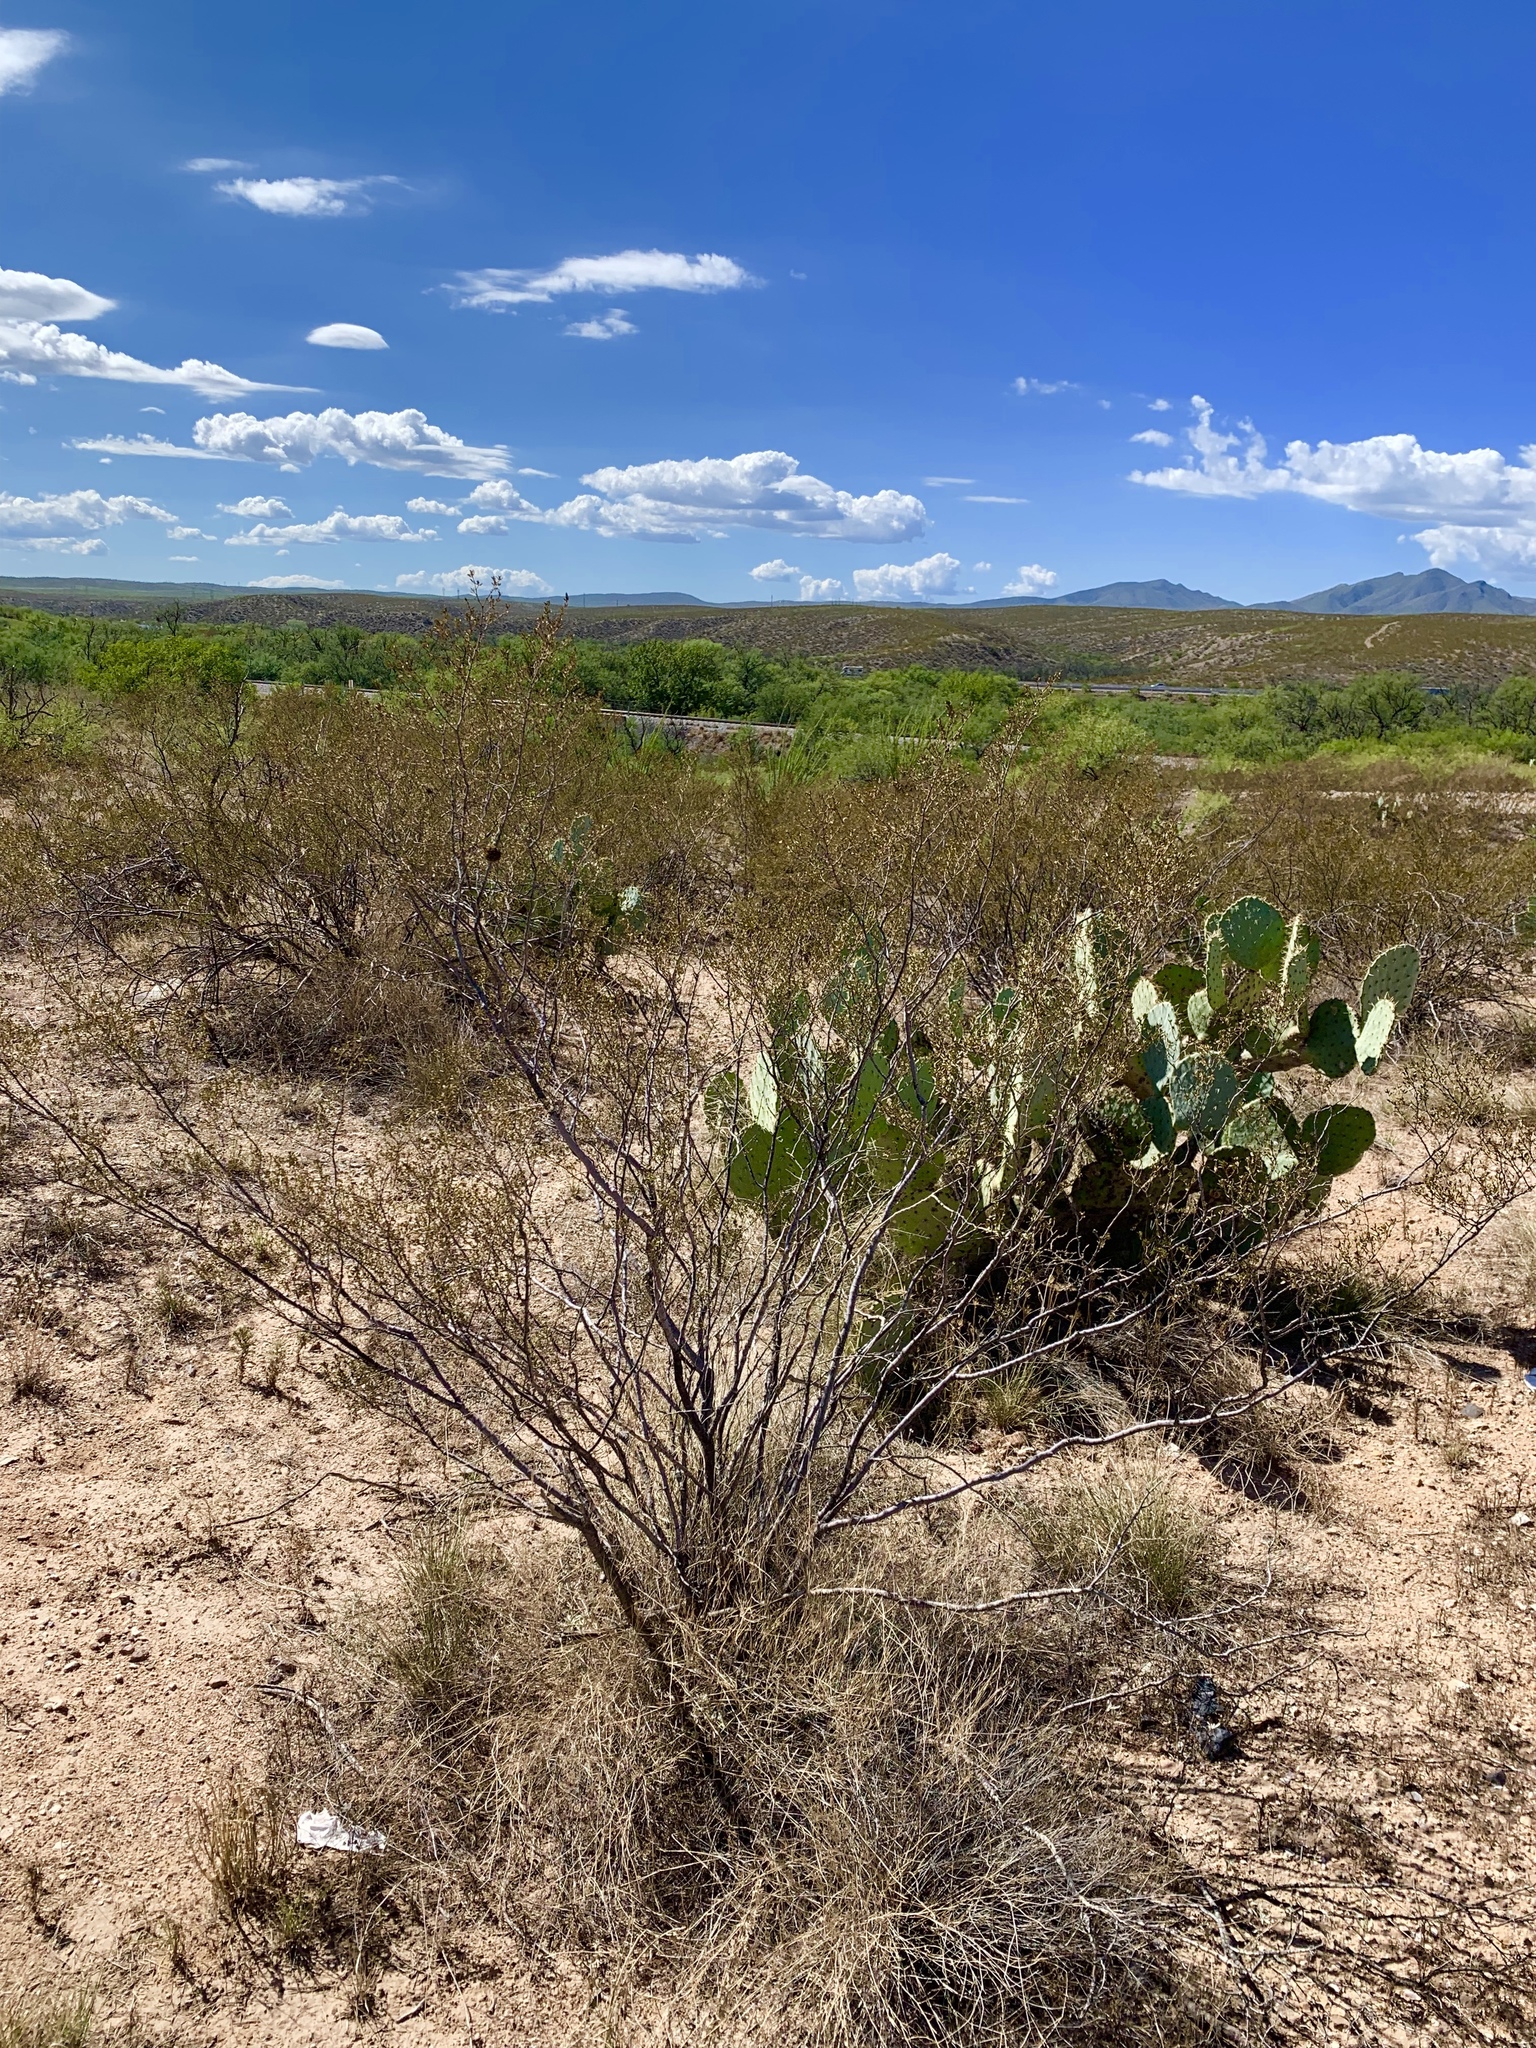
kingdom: Plantae
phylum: Tracheophyta
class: Magnoliopsida
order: Zygophyllales
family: Zygophyllaceae
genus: Larrea
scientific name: Larrea tridentata
